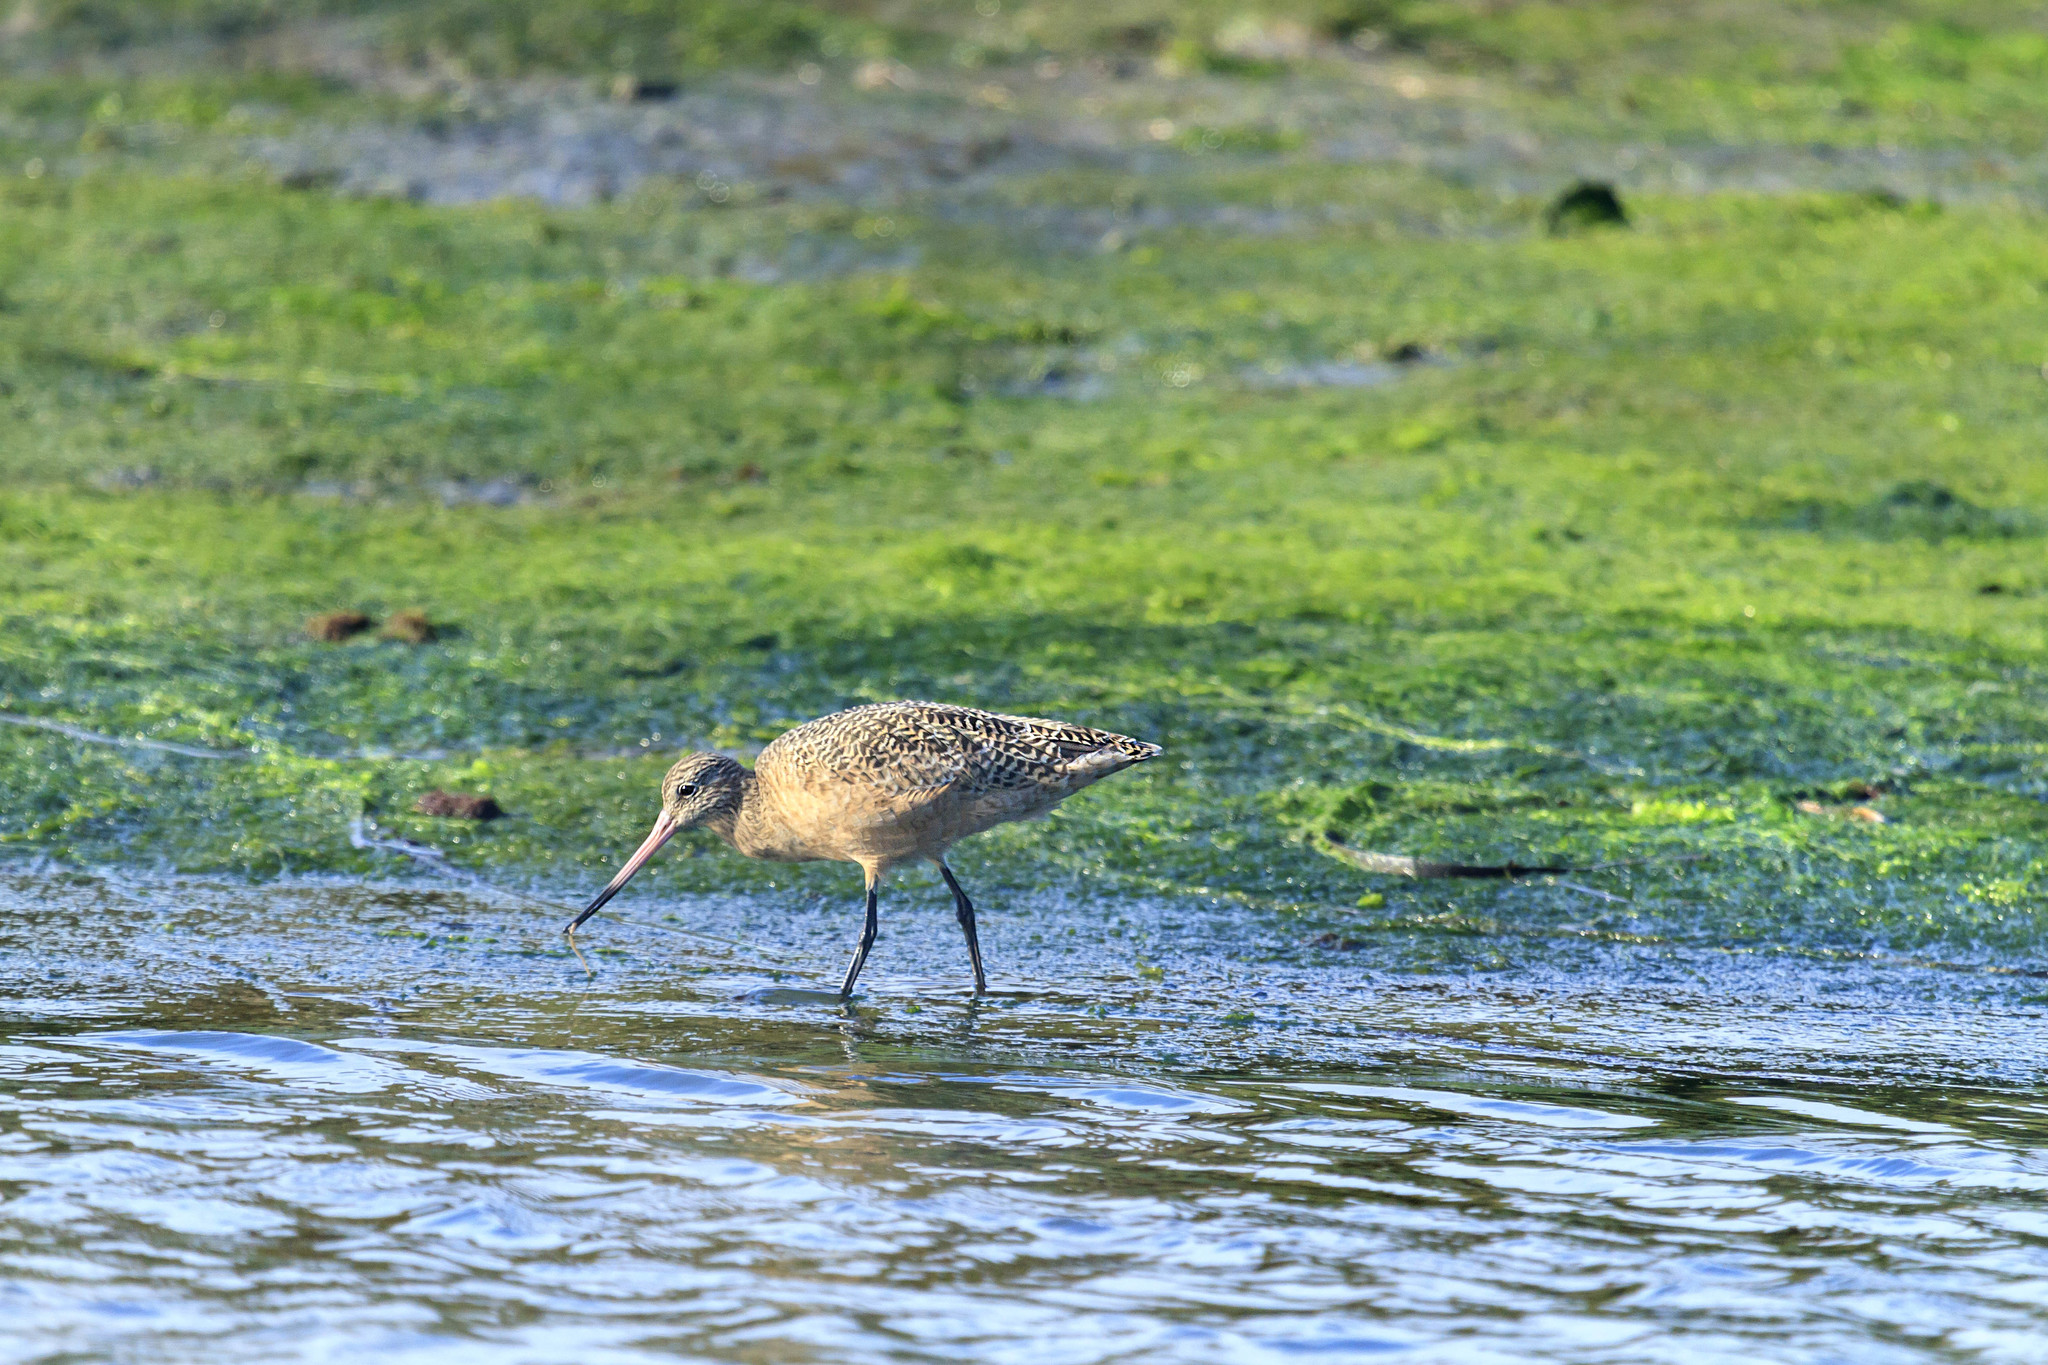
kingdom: Animalia
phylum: Chordata
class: Aves
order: Charadriiformes
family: Scolopacidae
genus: Limosa
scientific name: Limosa fedoa
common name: Marbled godwit
